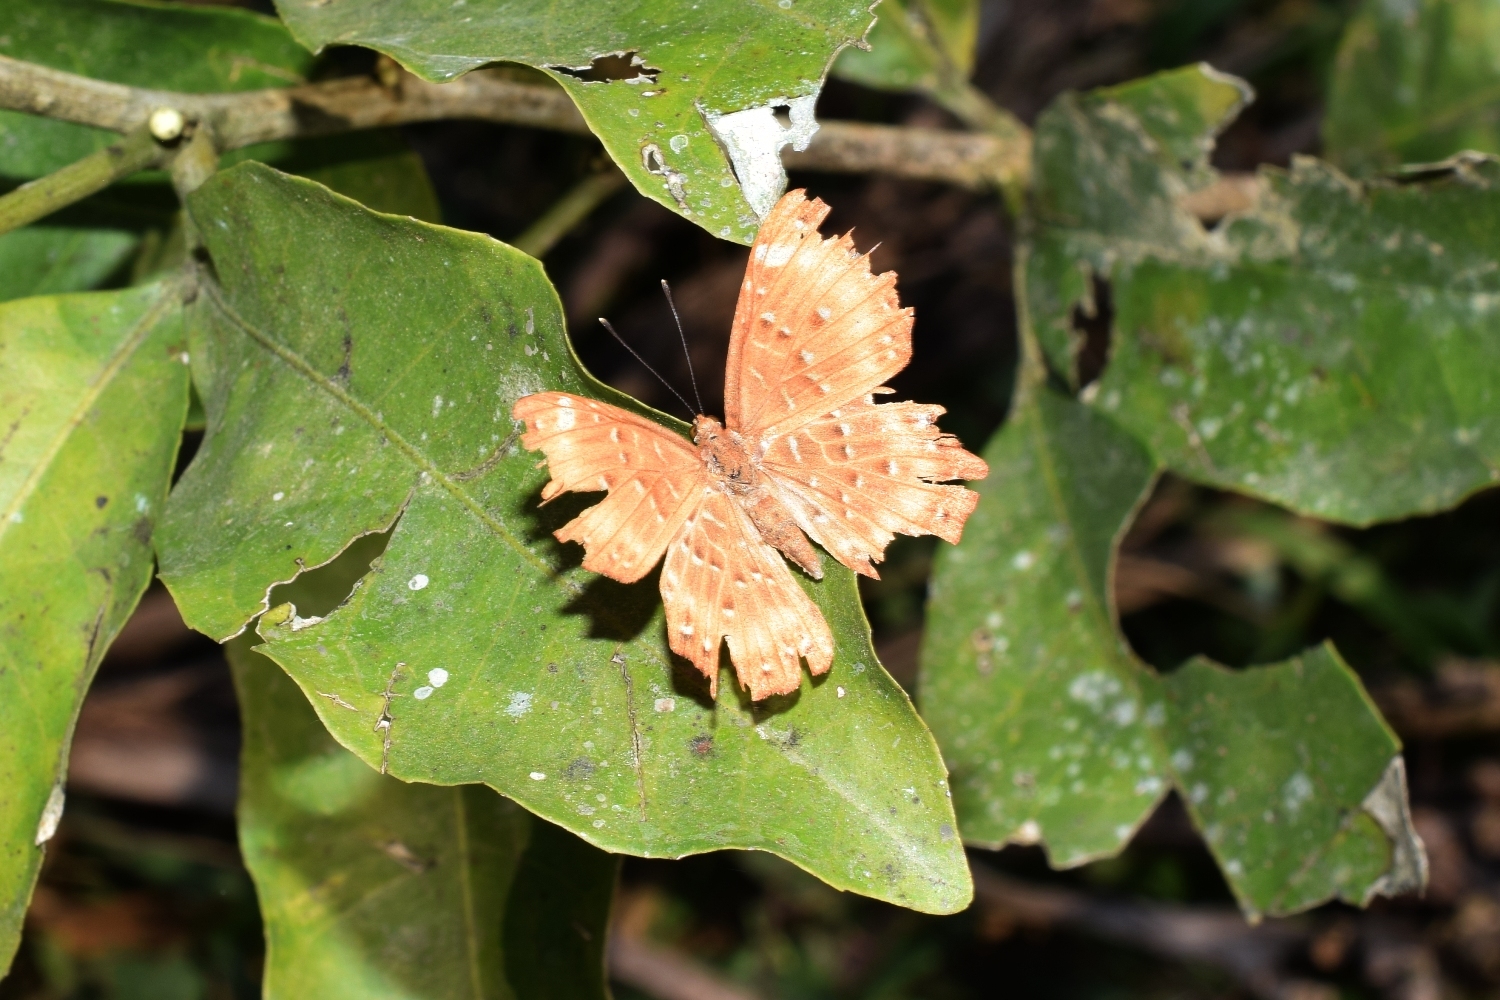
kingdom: Animalia
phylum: Arthropoda
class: Insecta
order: Lepidoptera
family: Riodinidae
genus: Zemeros
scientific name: Zemeros flegyas
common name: Punchinello
